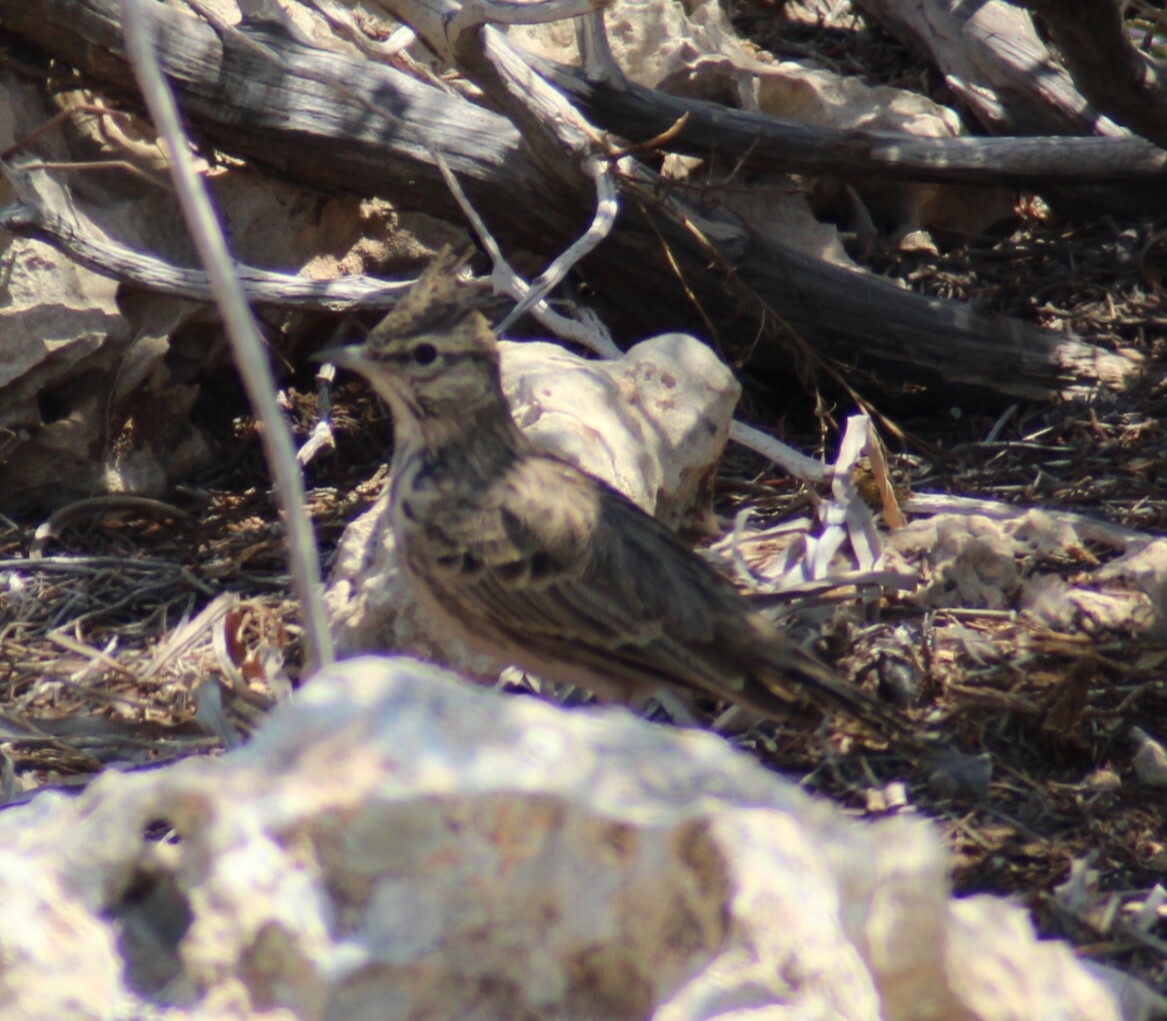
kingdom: Animalia
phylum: Chordata
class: Aves
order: Passeriformes
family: Alaudidae
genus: Galerida
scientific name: Galerida cristata
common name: Crested lark
